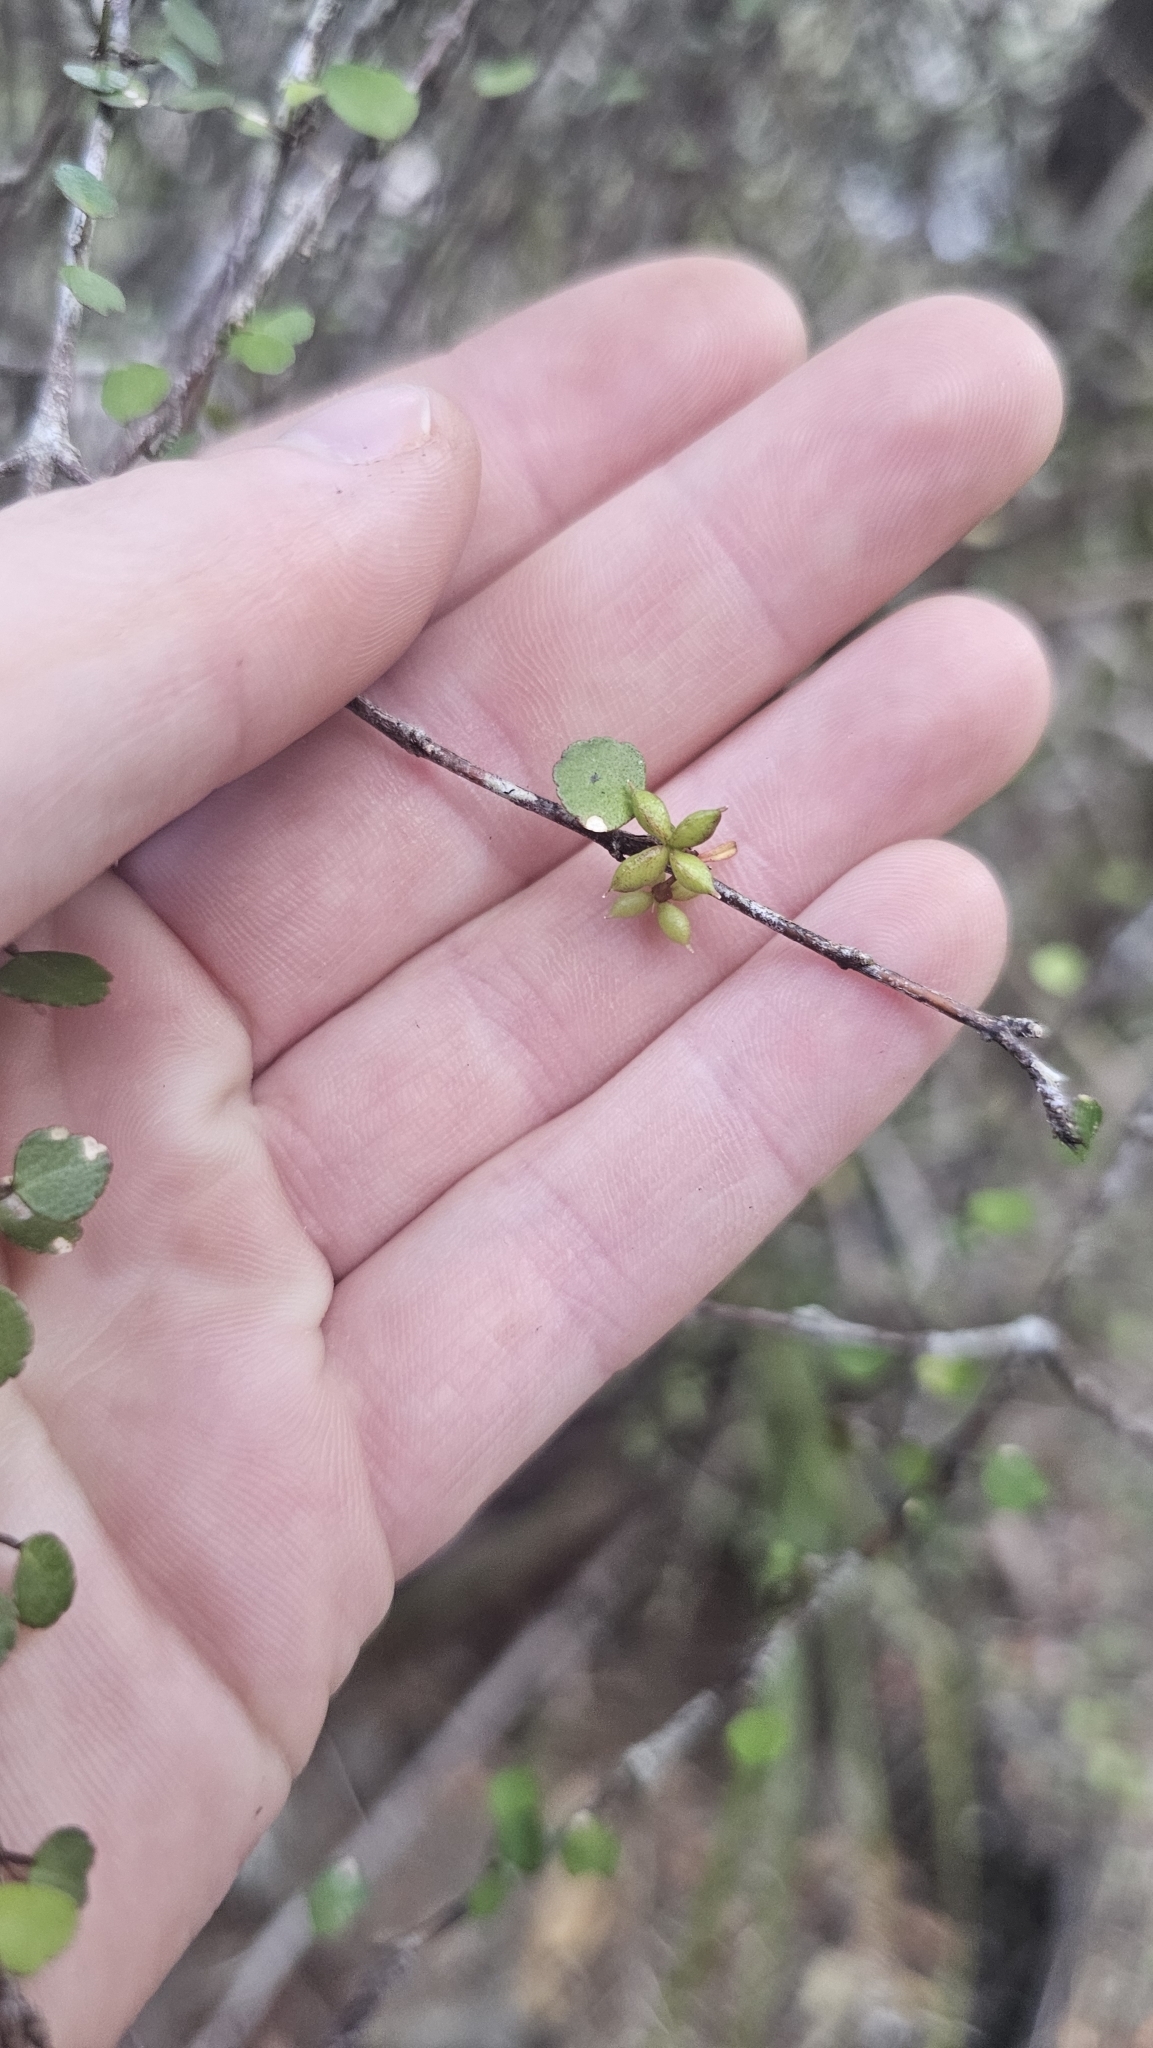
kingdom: Plantae
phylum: Tracheophyta
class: Magnoliopsida
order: Sapindales
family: Rutaceae
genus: Melicope
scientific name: Melicope simplex
